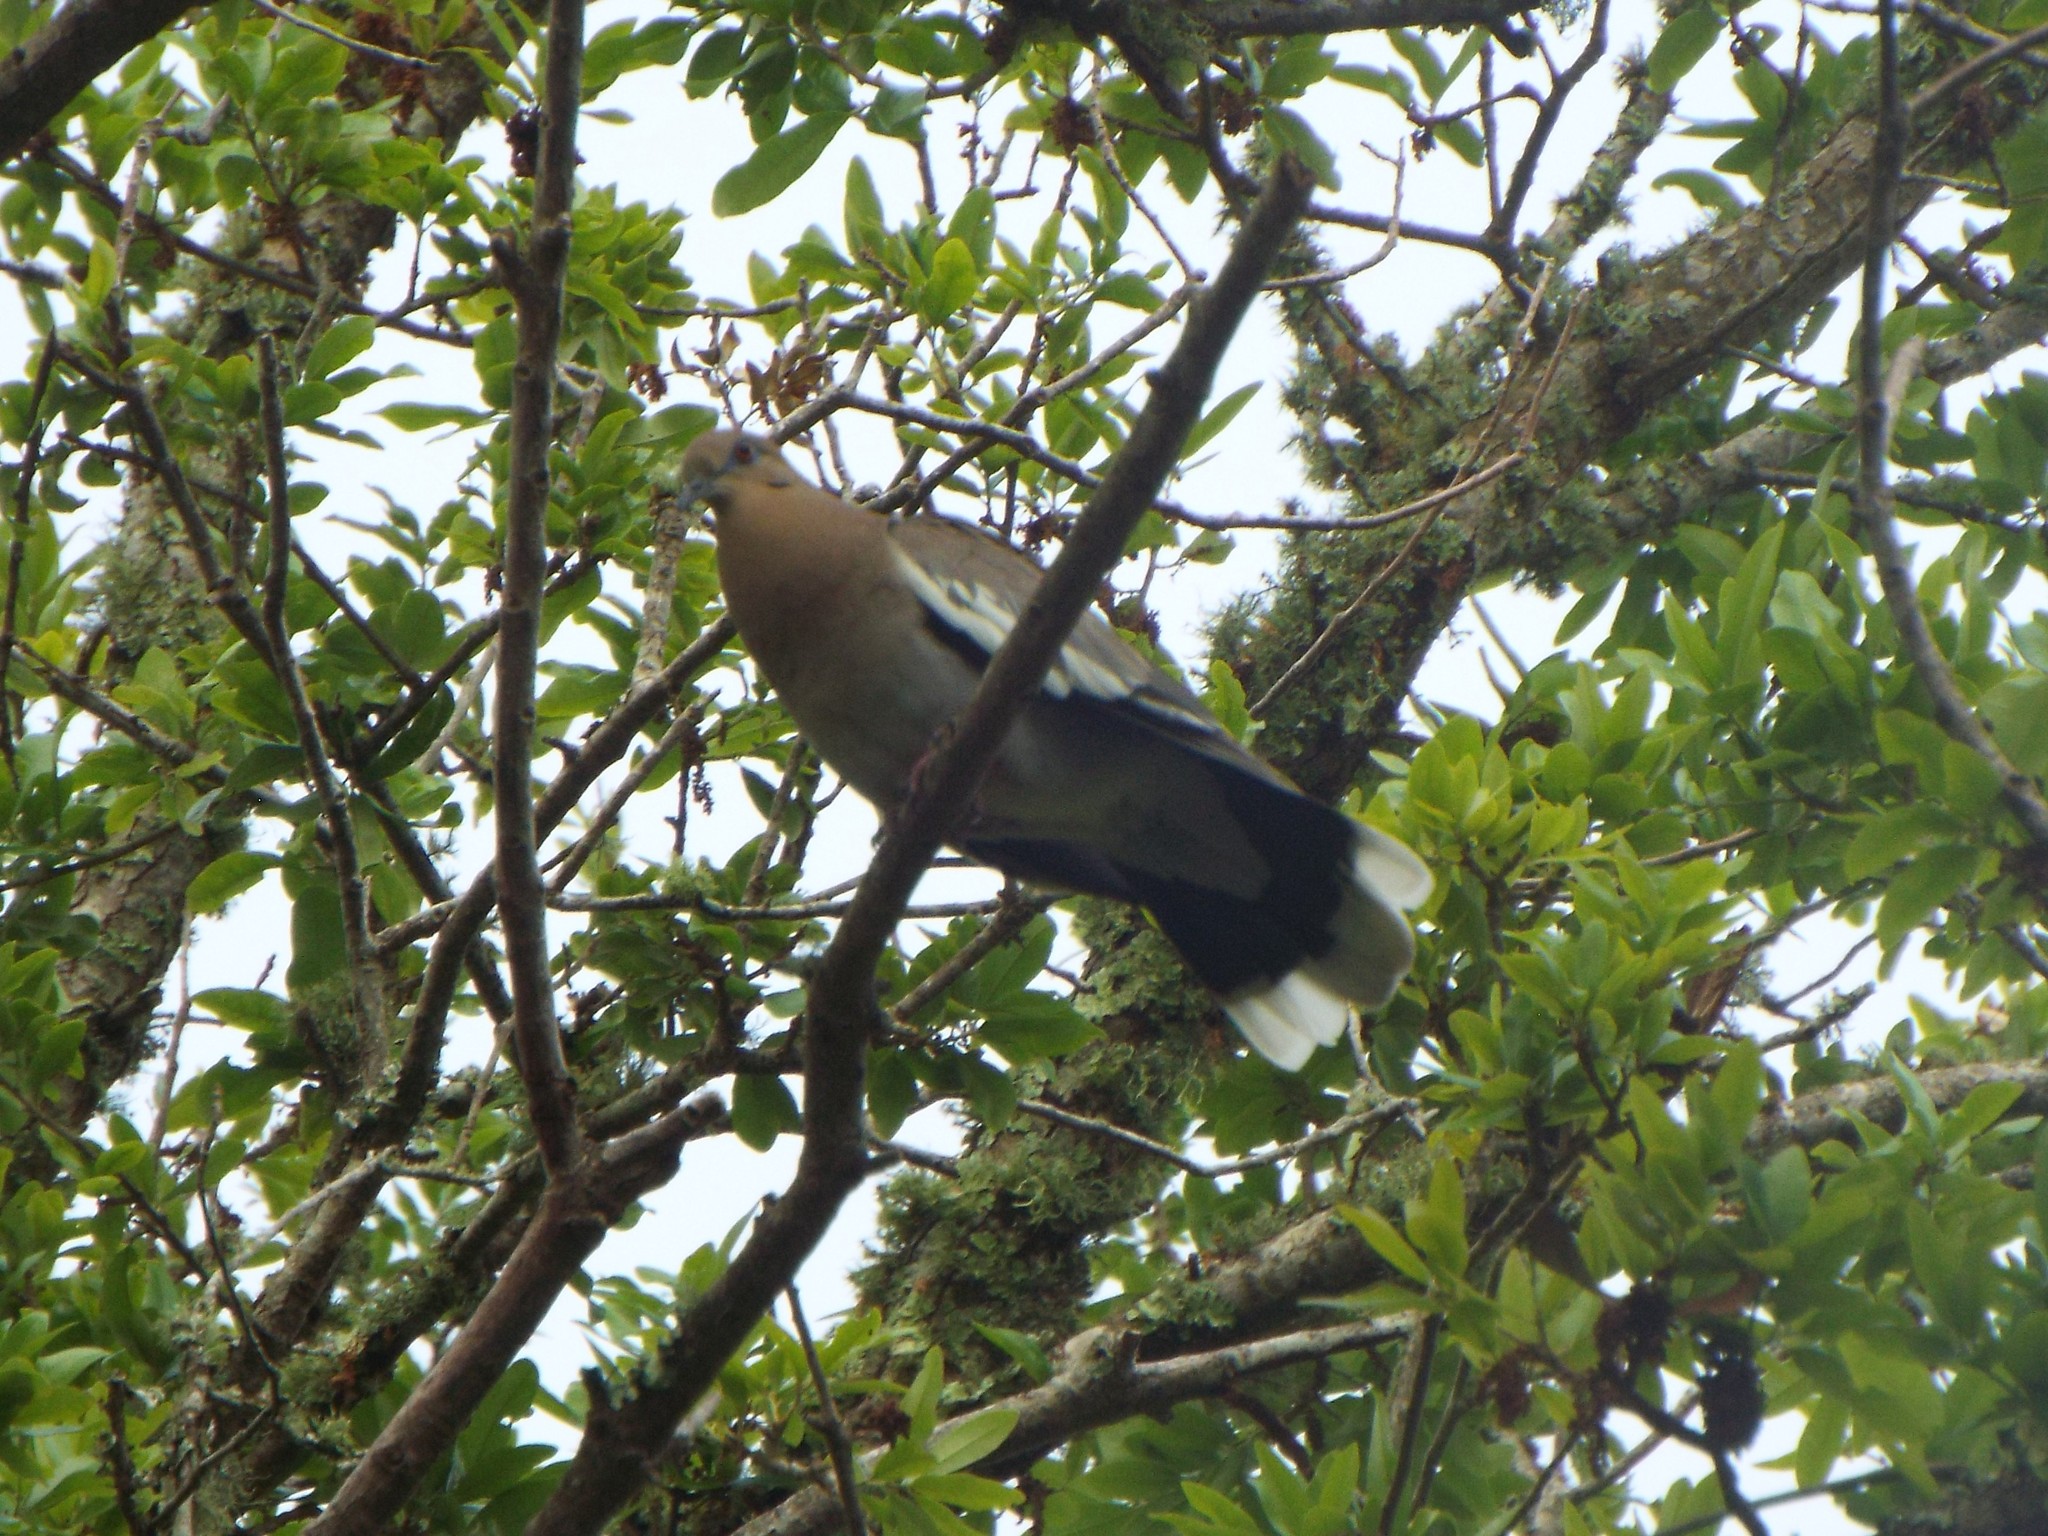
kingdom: Animalia
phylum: Chordata
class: Aves
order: Columbiformes
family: Columbidae
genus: Zenaida
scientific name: Zenaida asiatica
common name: White-winged dove
